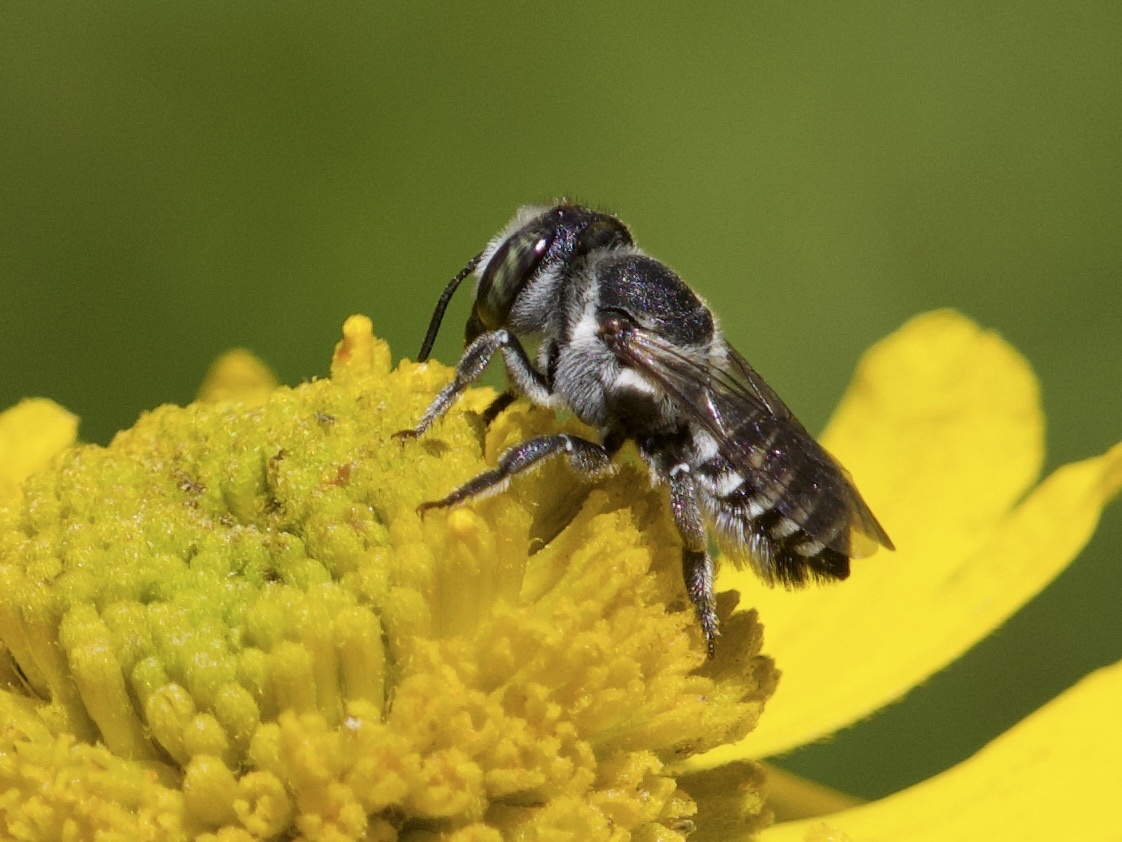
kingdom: Animalia
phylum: Arthropoda
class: Insecta
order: Hymenoptera
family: Megachilidae
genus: Megachile
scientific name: Megachile apicalis
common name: Apical leafcutter bee
